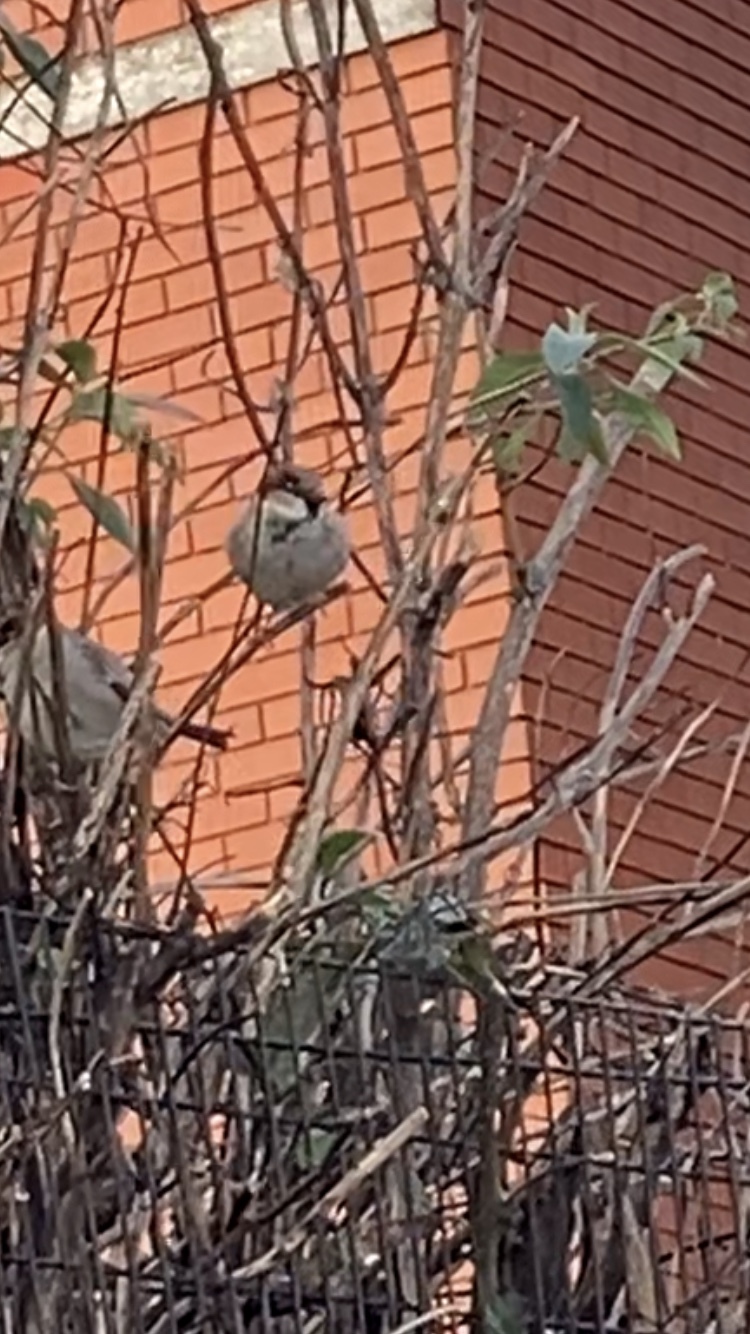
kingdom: Animalia
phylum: Chordata
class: Aves
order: Passeriformes
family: Passeridae
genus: Passer
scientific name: Passer domesticus
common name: House sparrow
